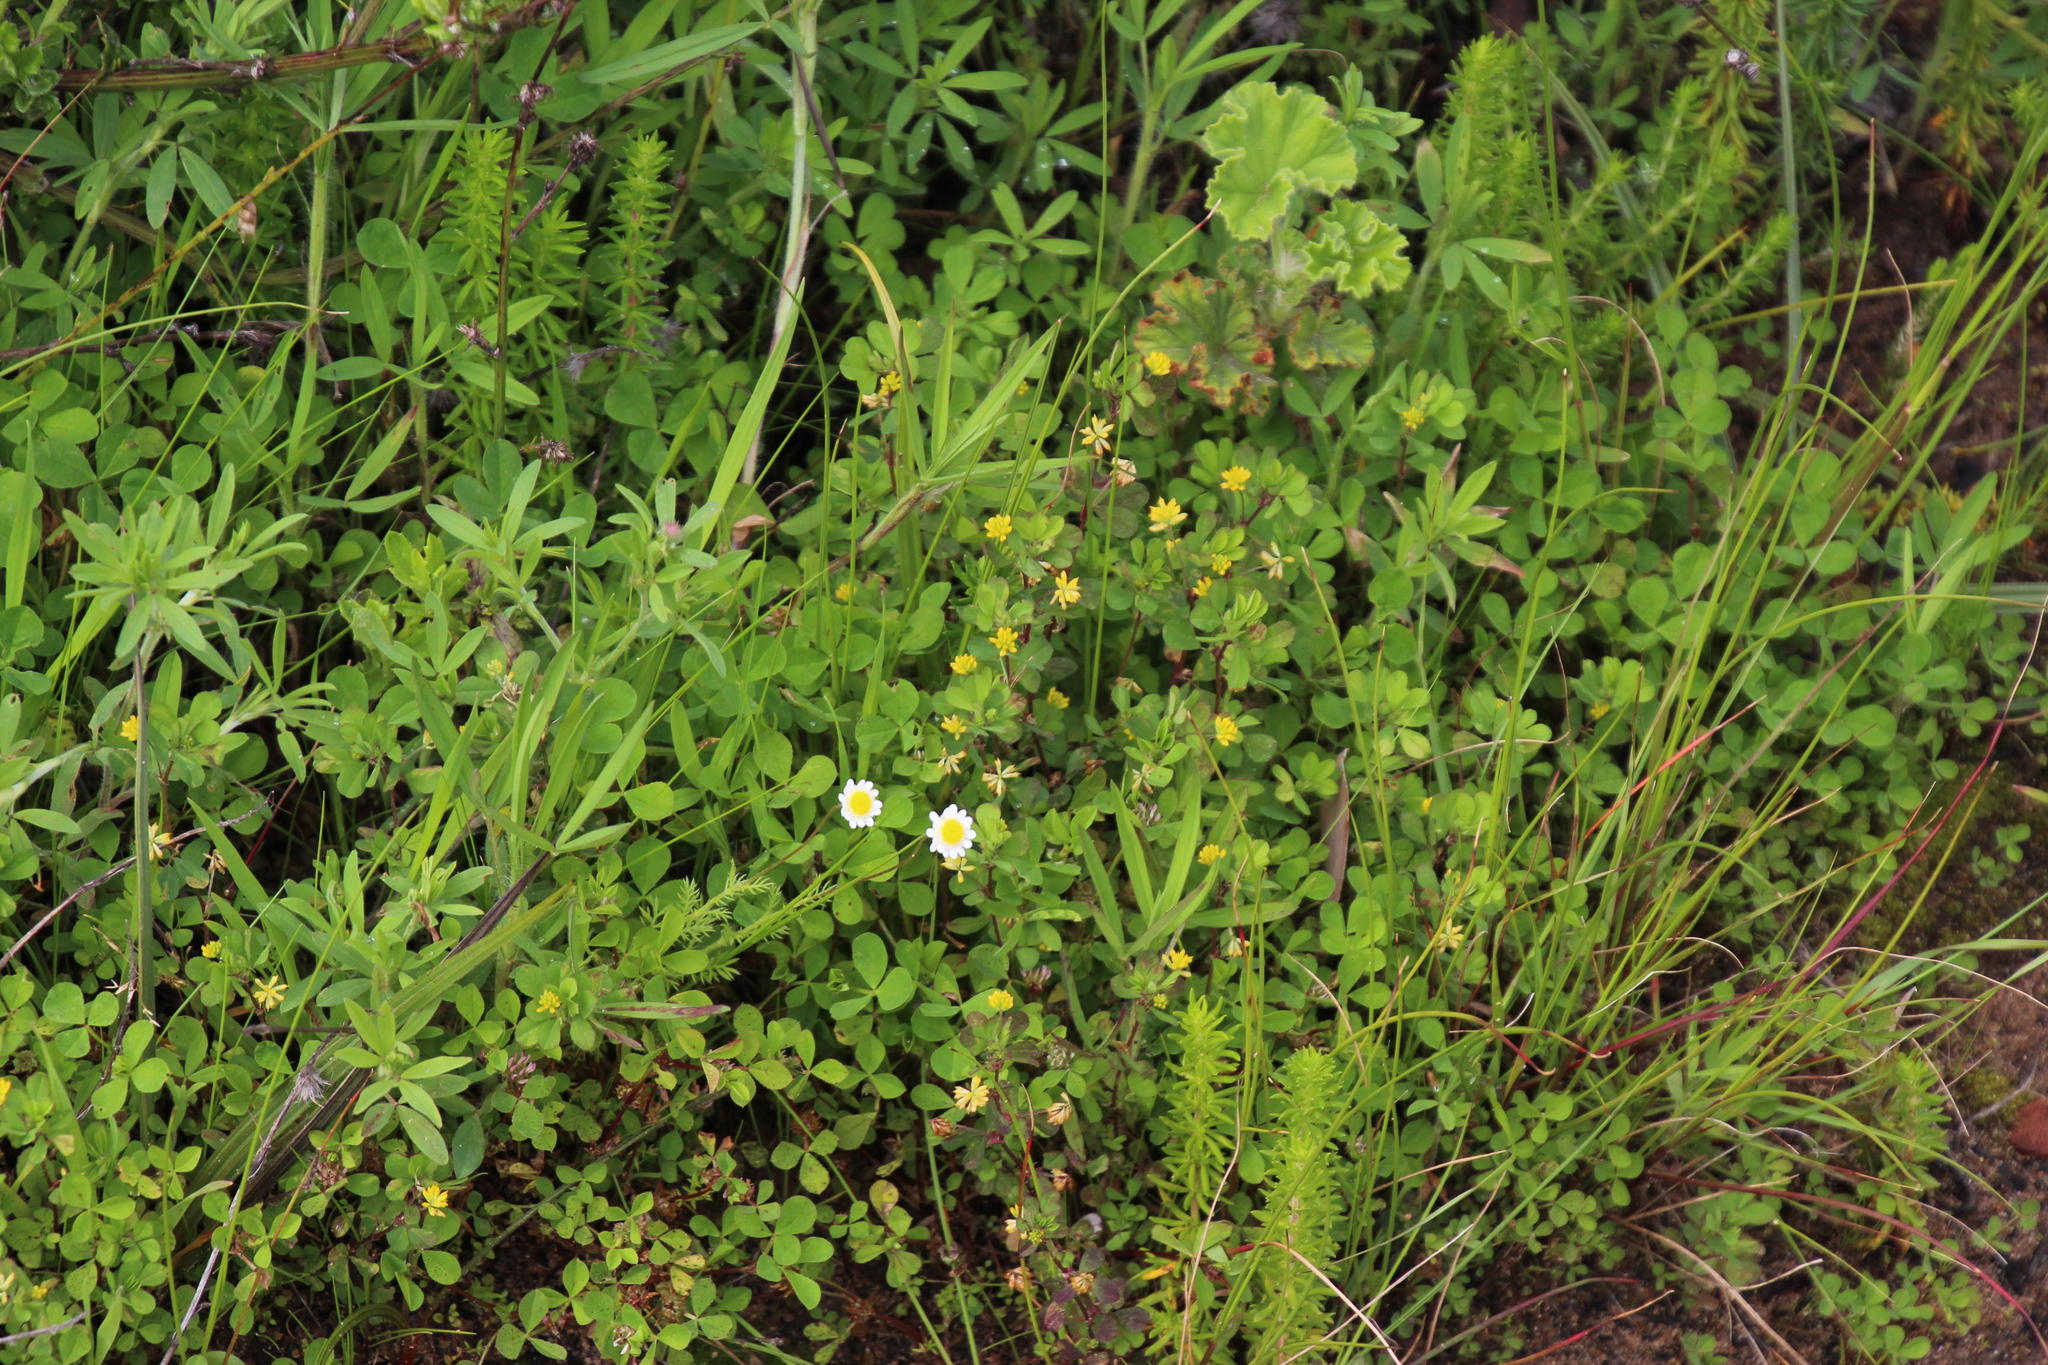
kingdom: Plantae
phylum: Tracheophyta
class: Magnoliopsida
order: Fabales
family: Fabaceae
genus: Trifolium
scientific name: Trifolium dubium
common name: Suckling clover
